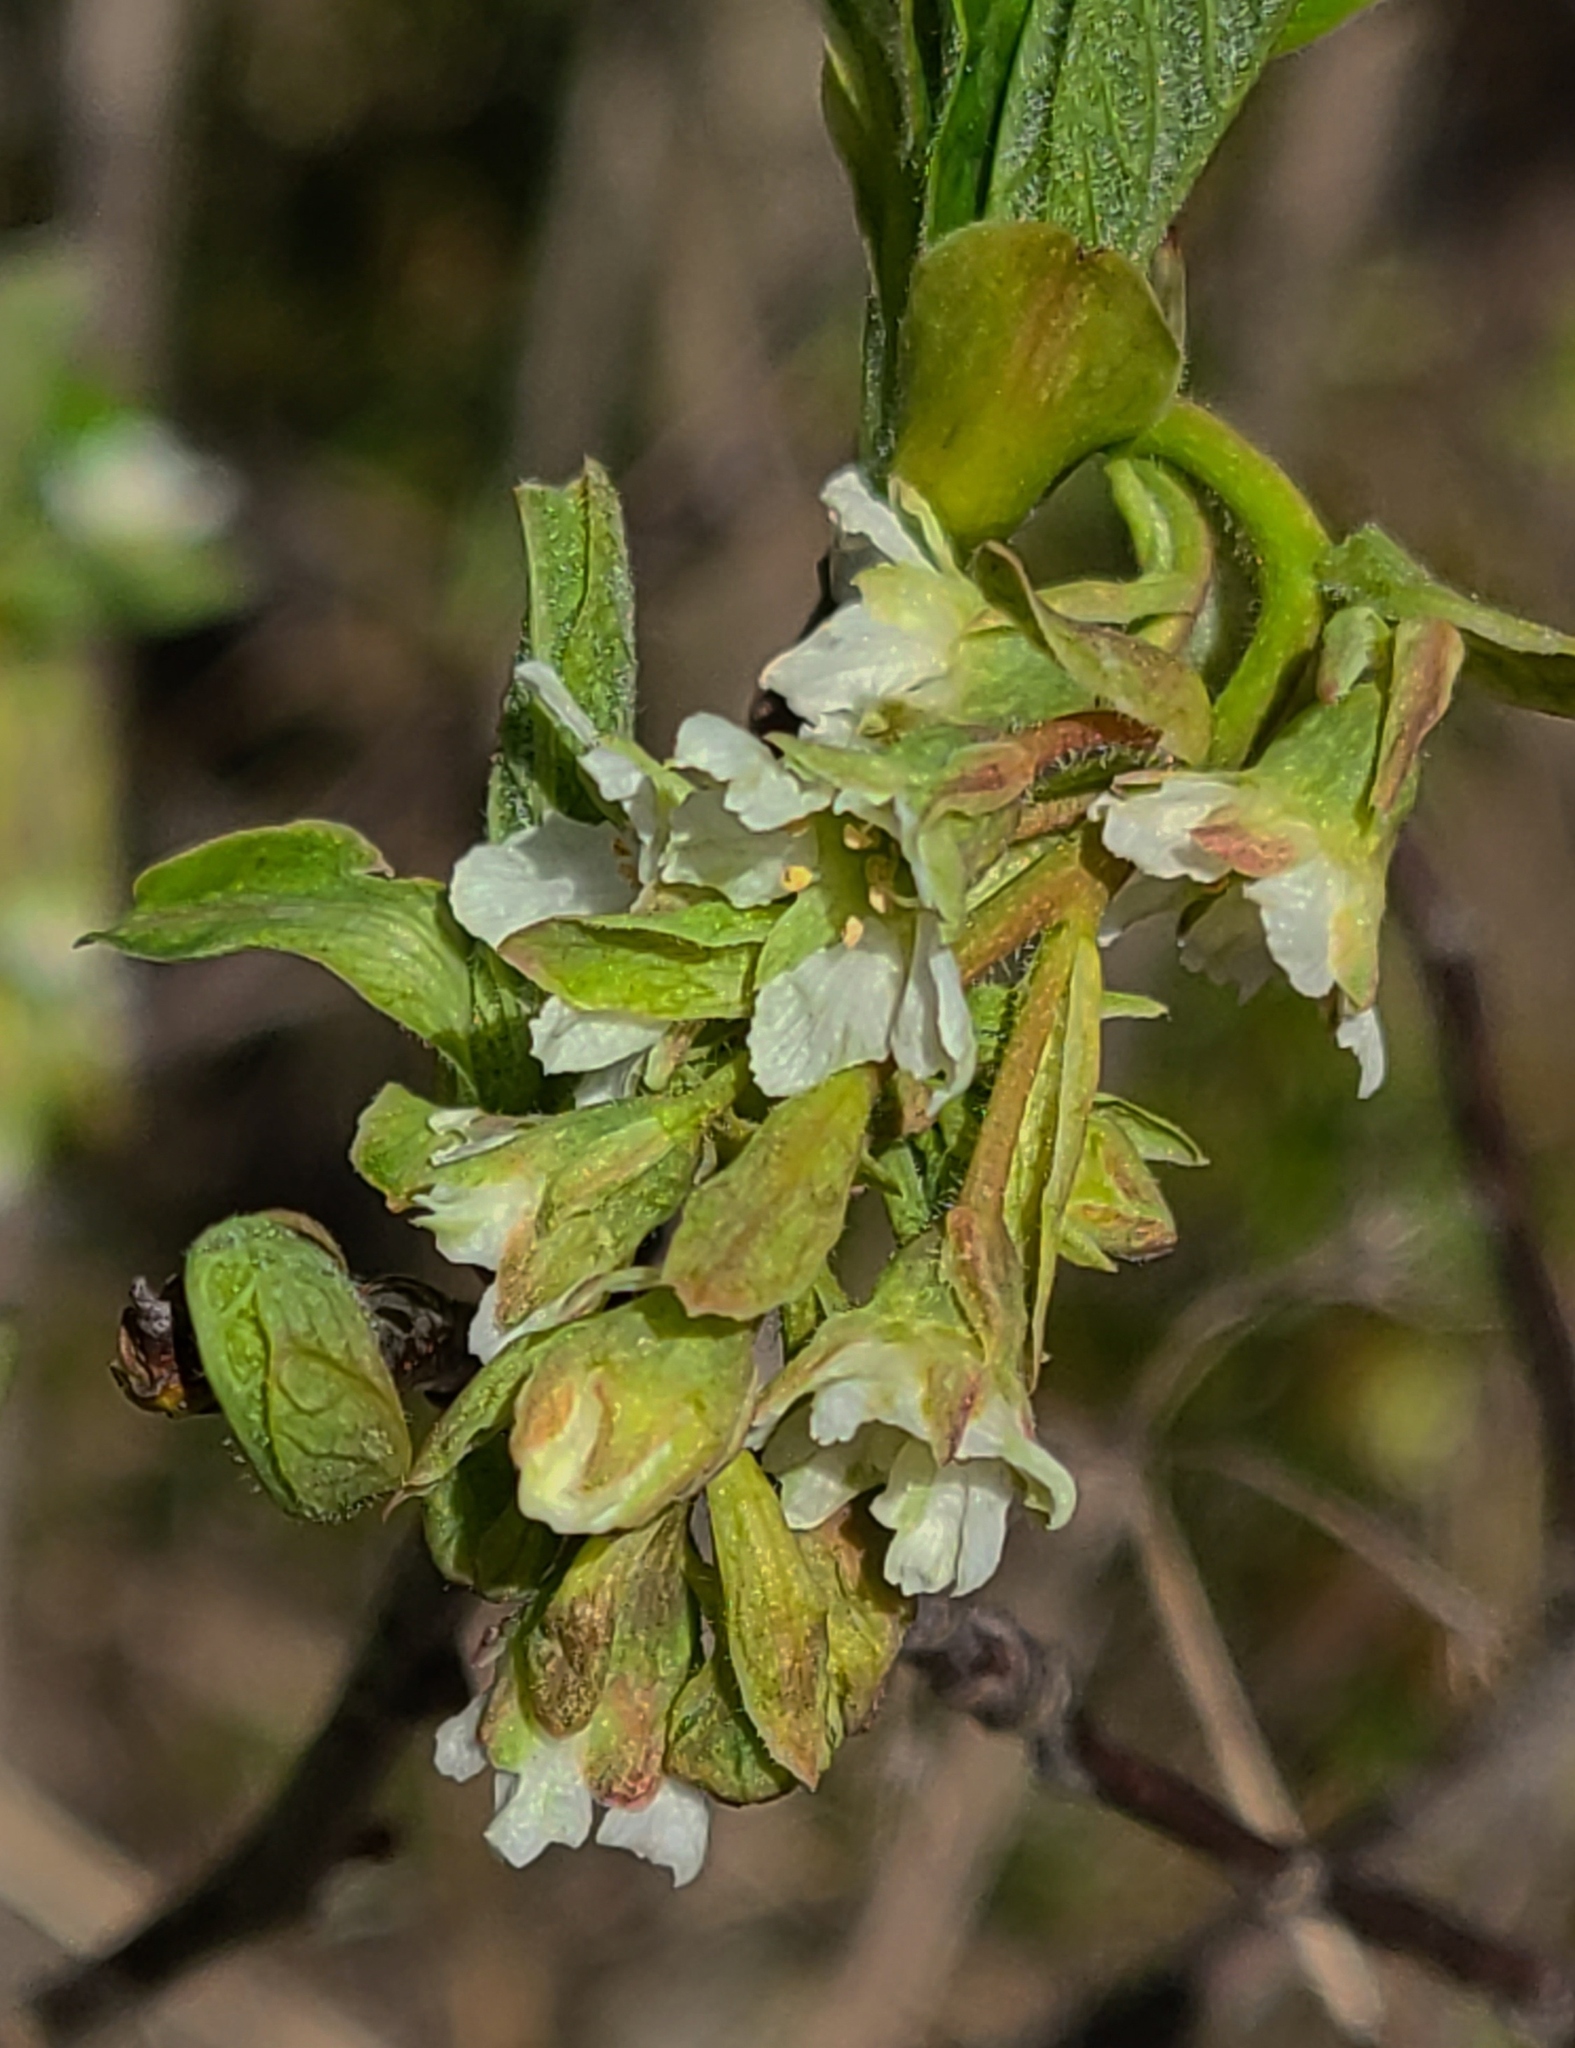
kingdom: Plantae
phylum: Tracheophyta
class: Magnoliopsida
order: Rosales
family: Rosaceae
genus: Oemleria
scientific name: Oemleria cerasiformis
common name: Osoberry
